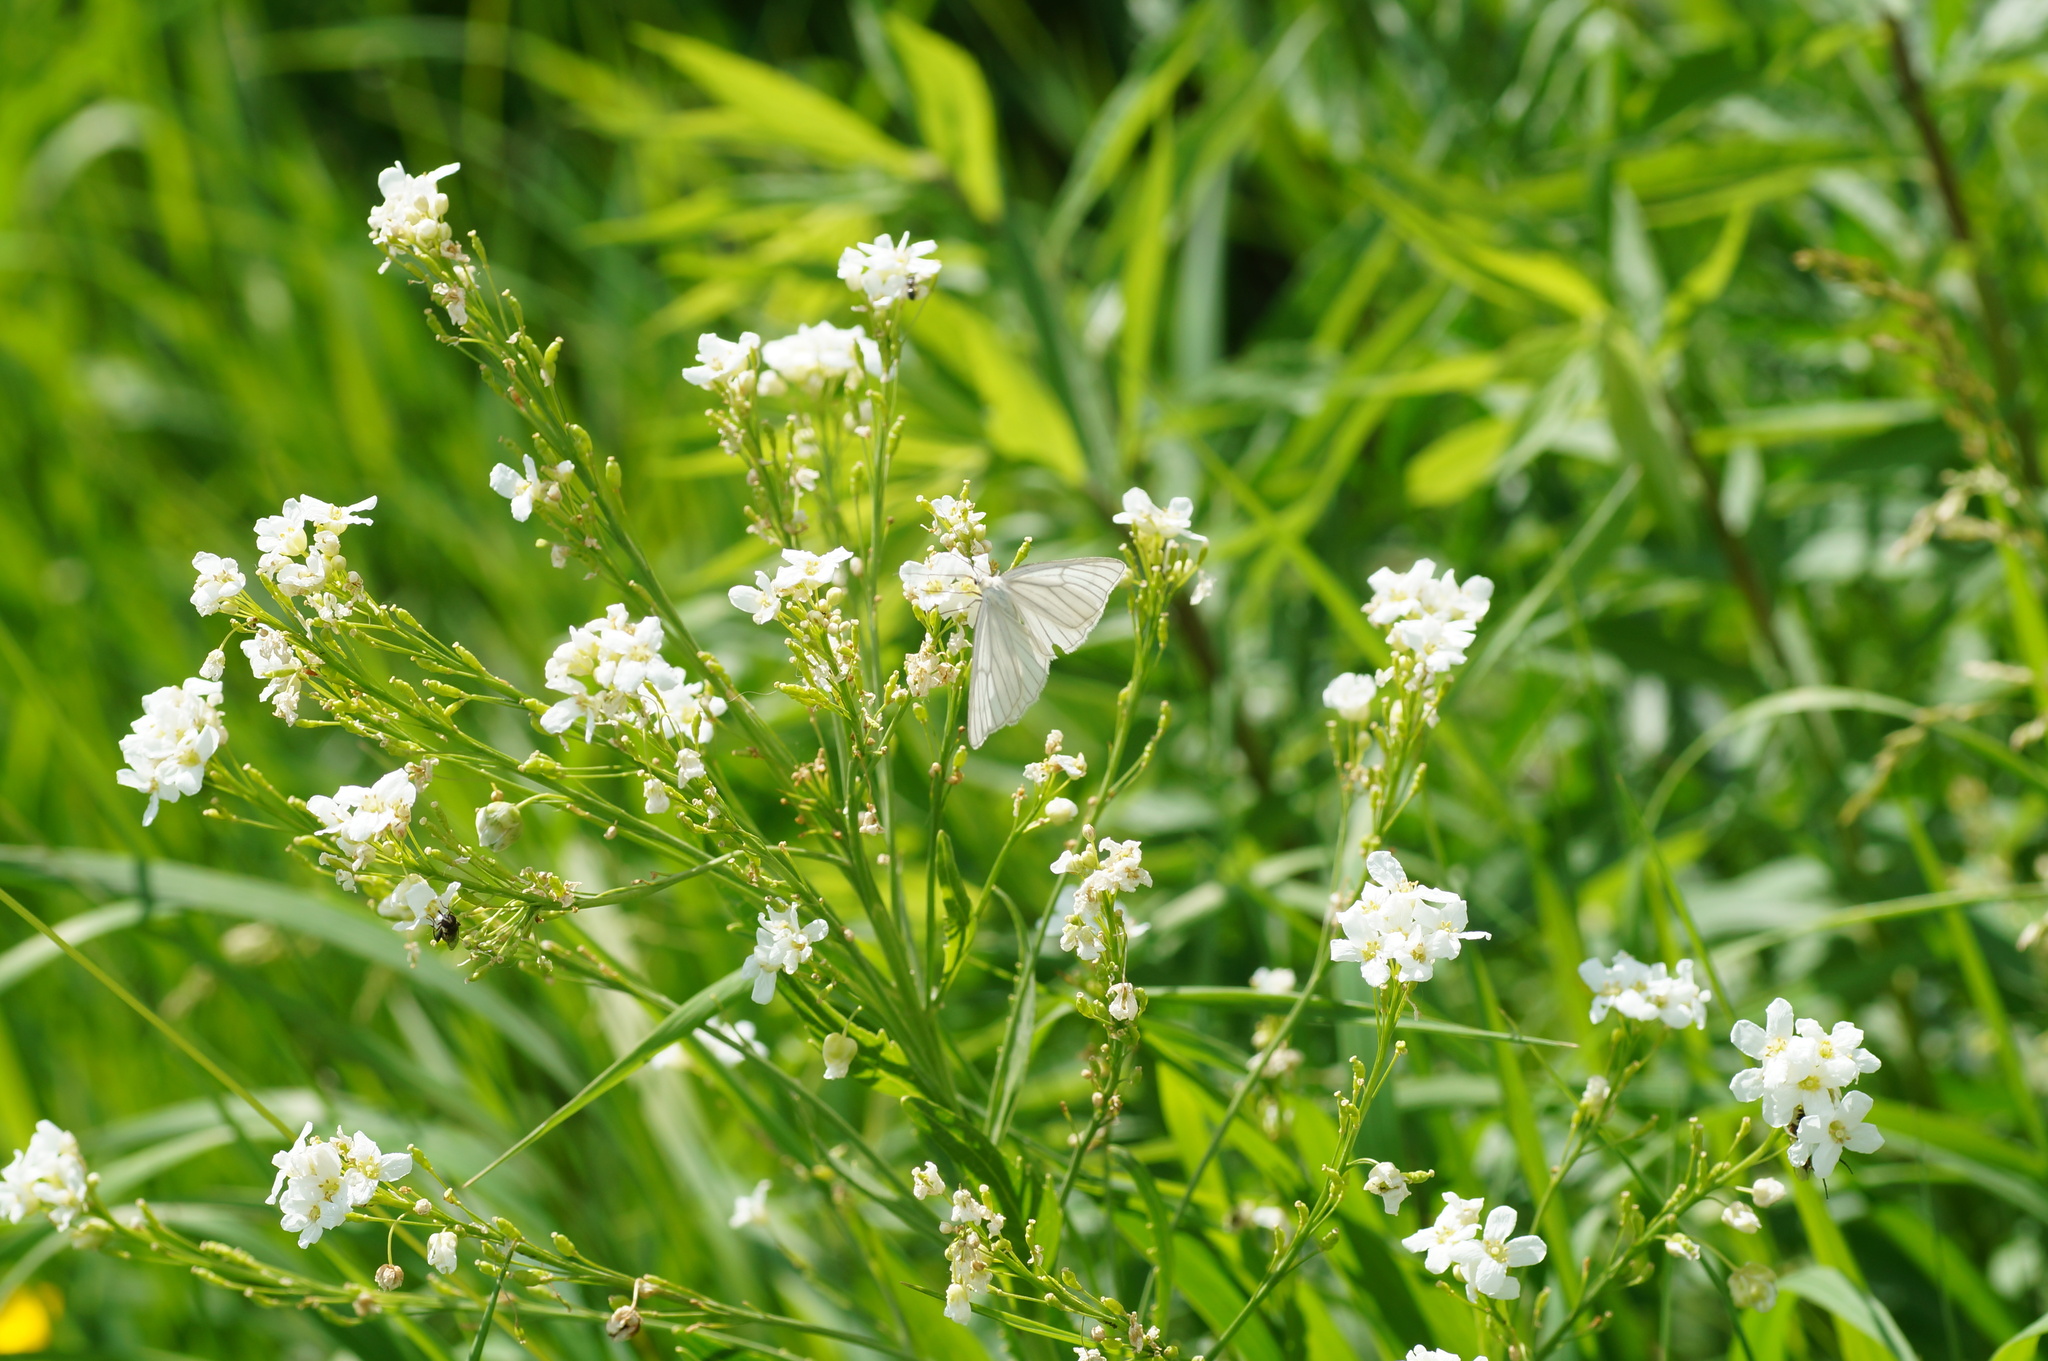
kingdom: Animalia
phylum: Arthropoda
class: Insecta
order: Lepidoptera
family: Geometridae
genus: Siona
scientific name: Siona lineata
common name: Black-veined moth
